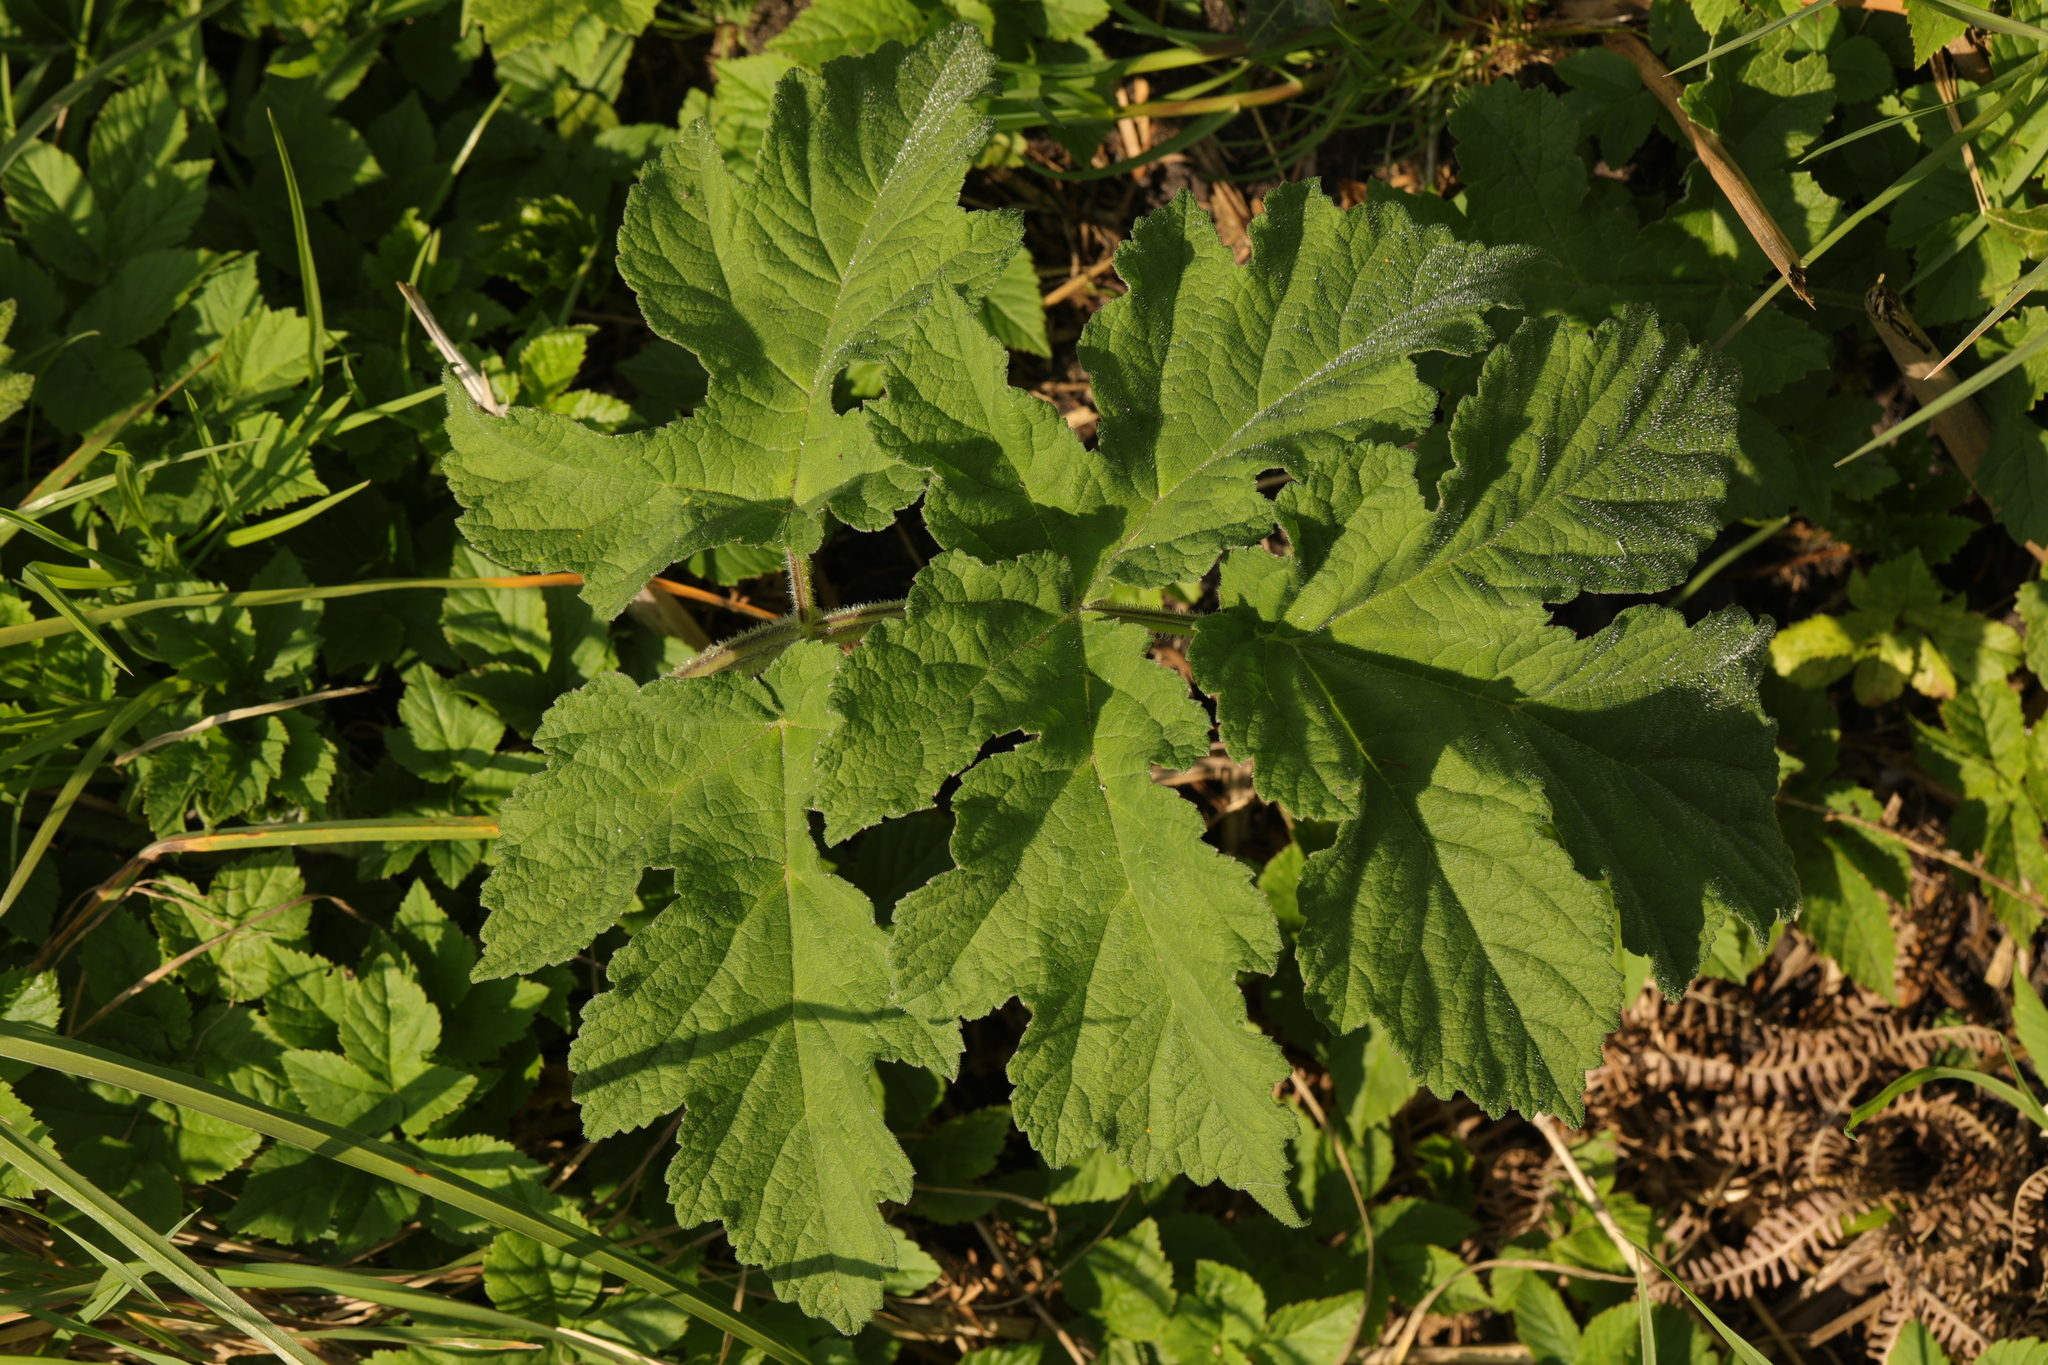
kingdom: Plantae
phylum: Tracheophyta
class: Magnoliopsida
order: Apiales
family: Apiaceae
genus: Heracleum
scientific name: Heracleum sphondylium
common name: Hogweed
